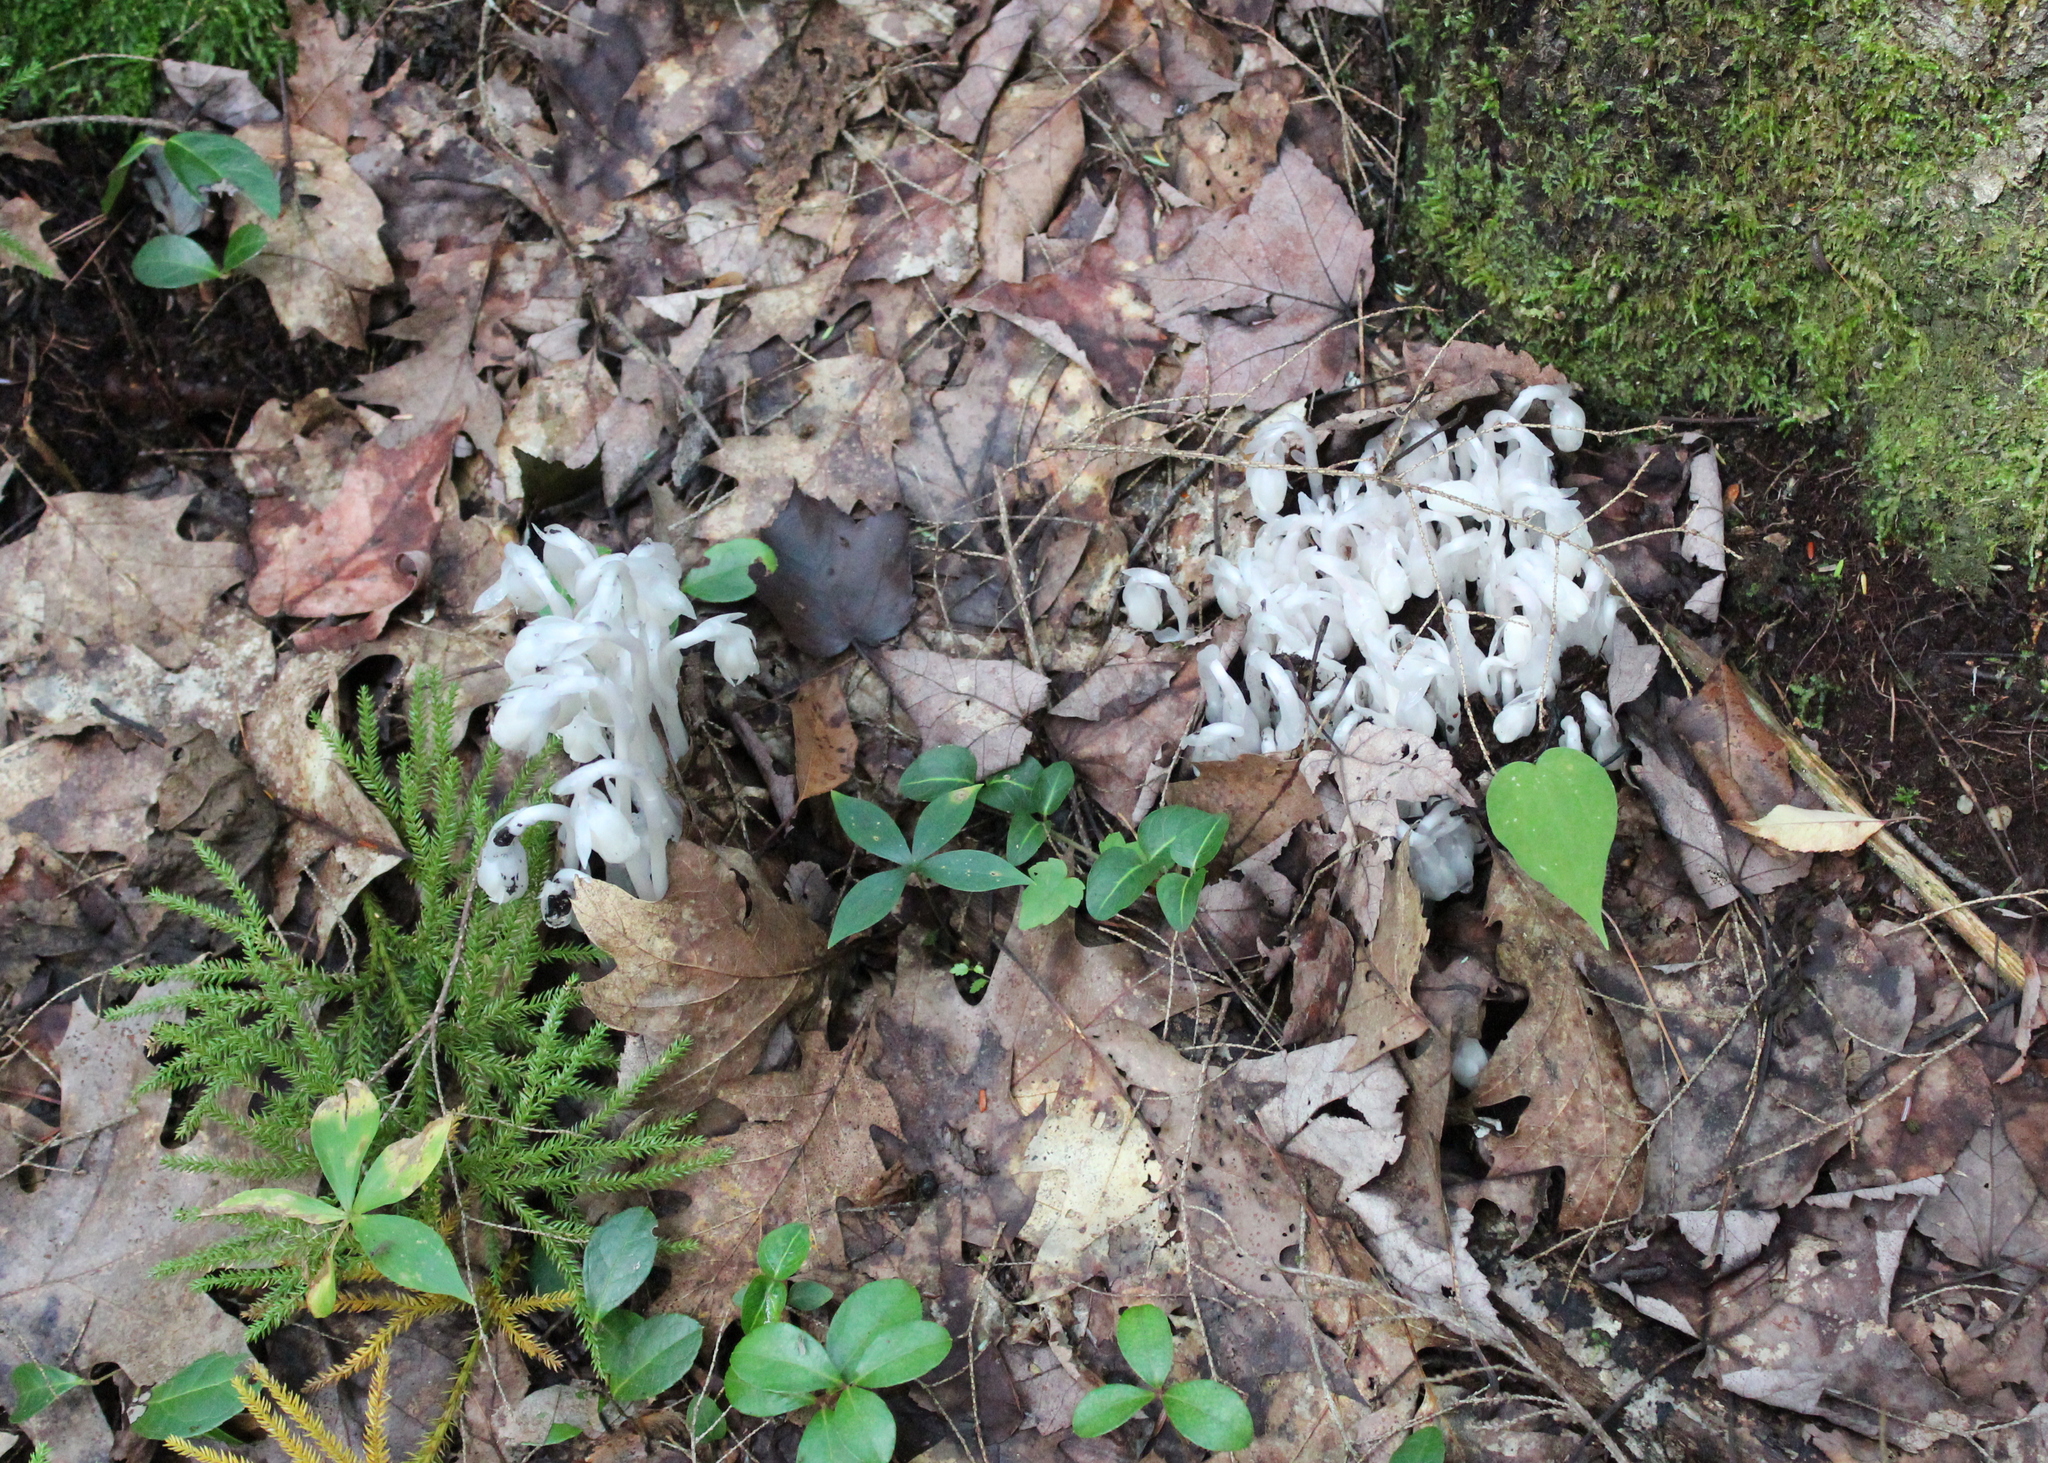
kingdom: Plantae
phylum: Tracheophyta
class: Magnoliopsida
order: Ericales
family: Ericaceae
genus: Monotropa
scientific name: Monotropa uniflora
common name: Convulsion root
